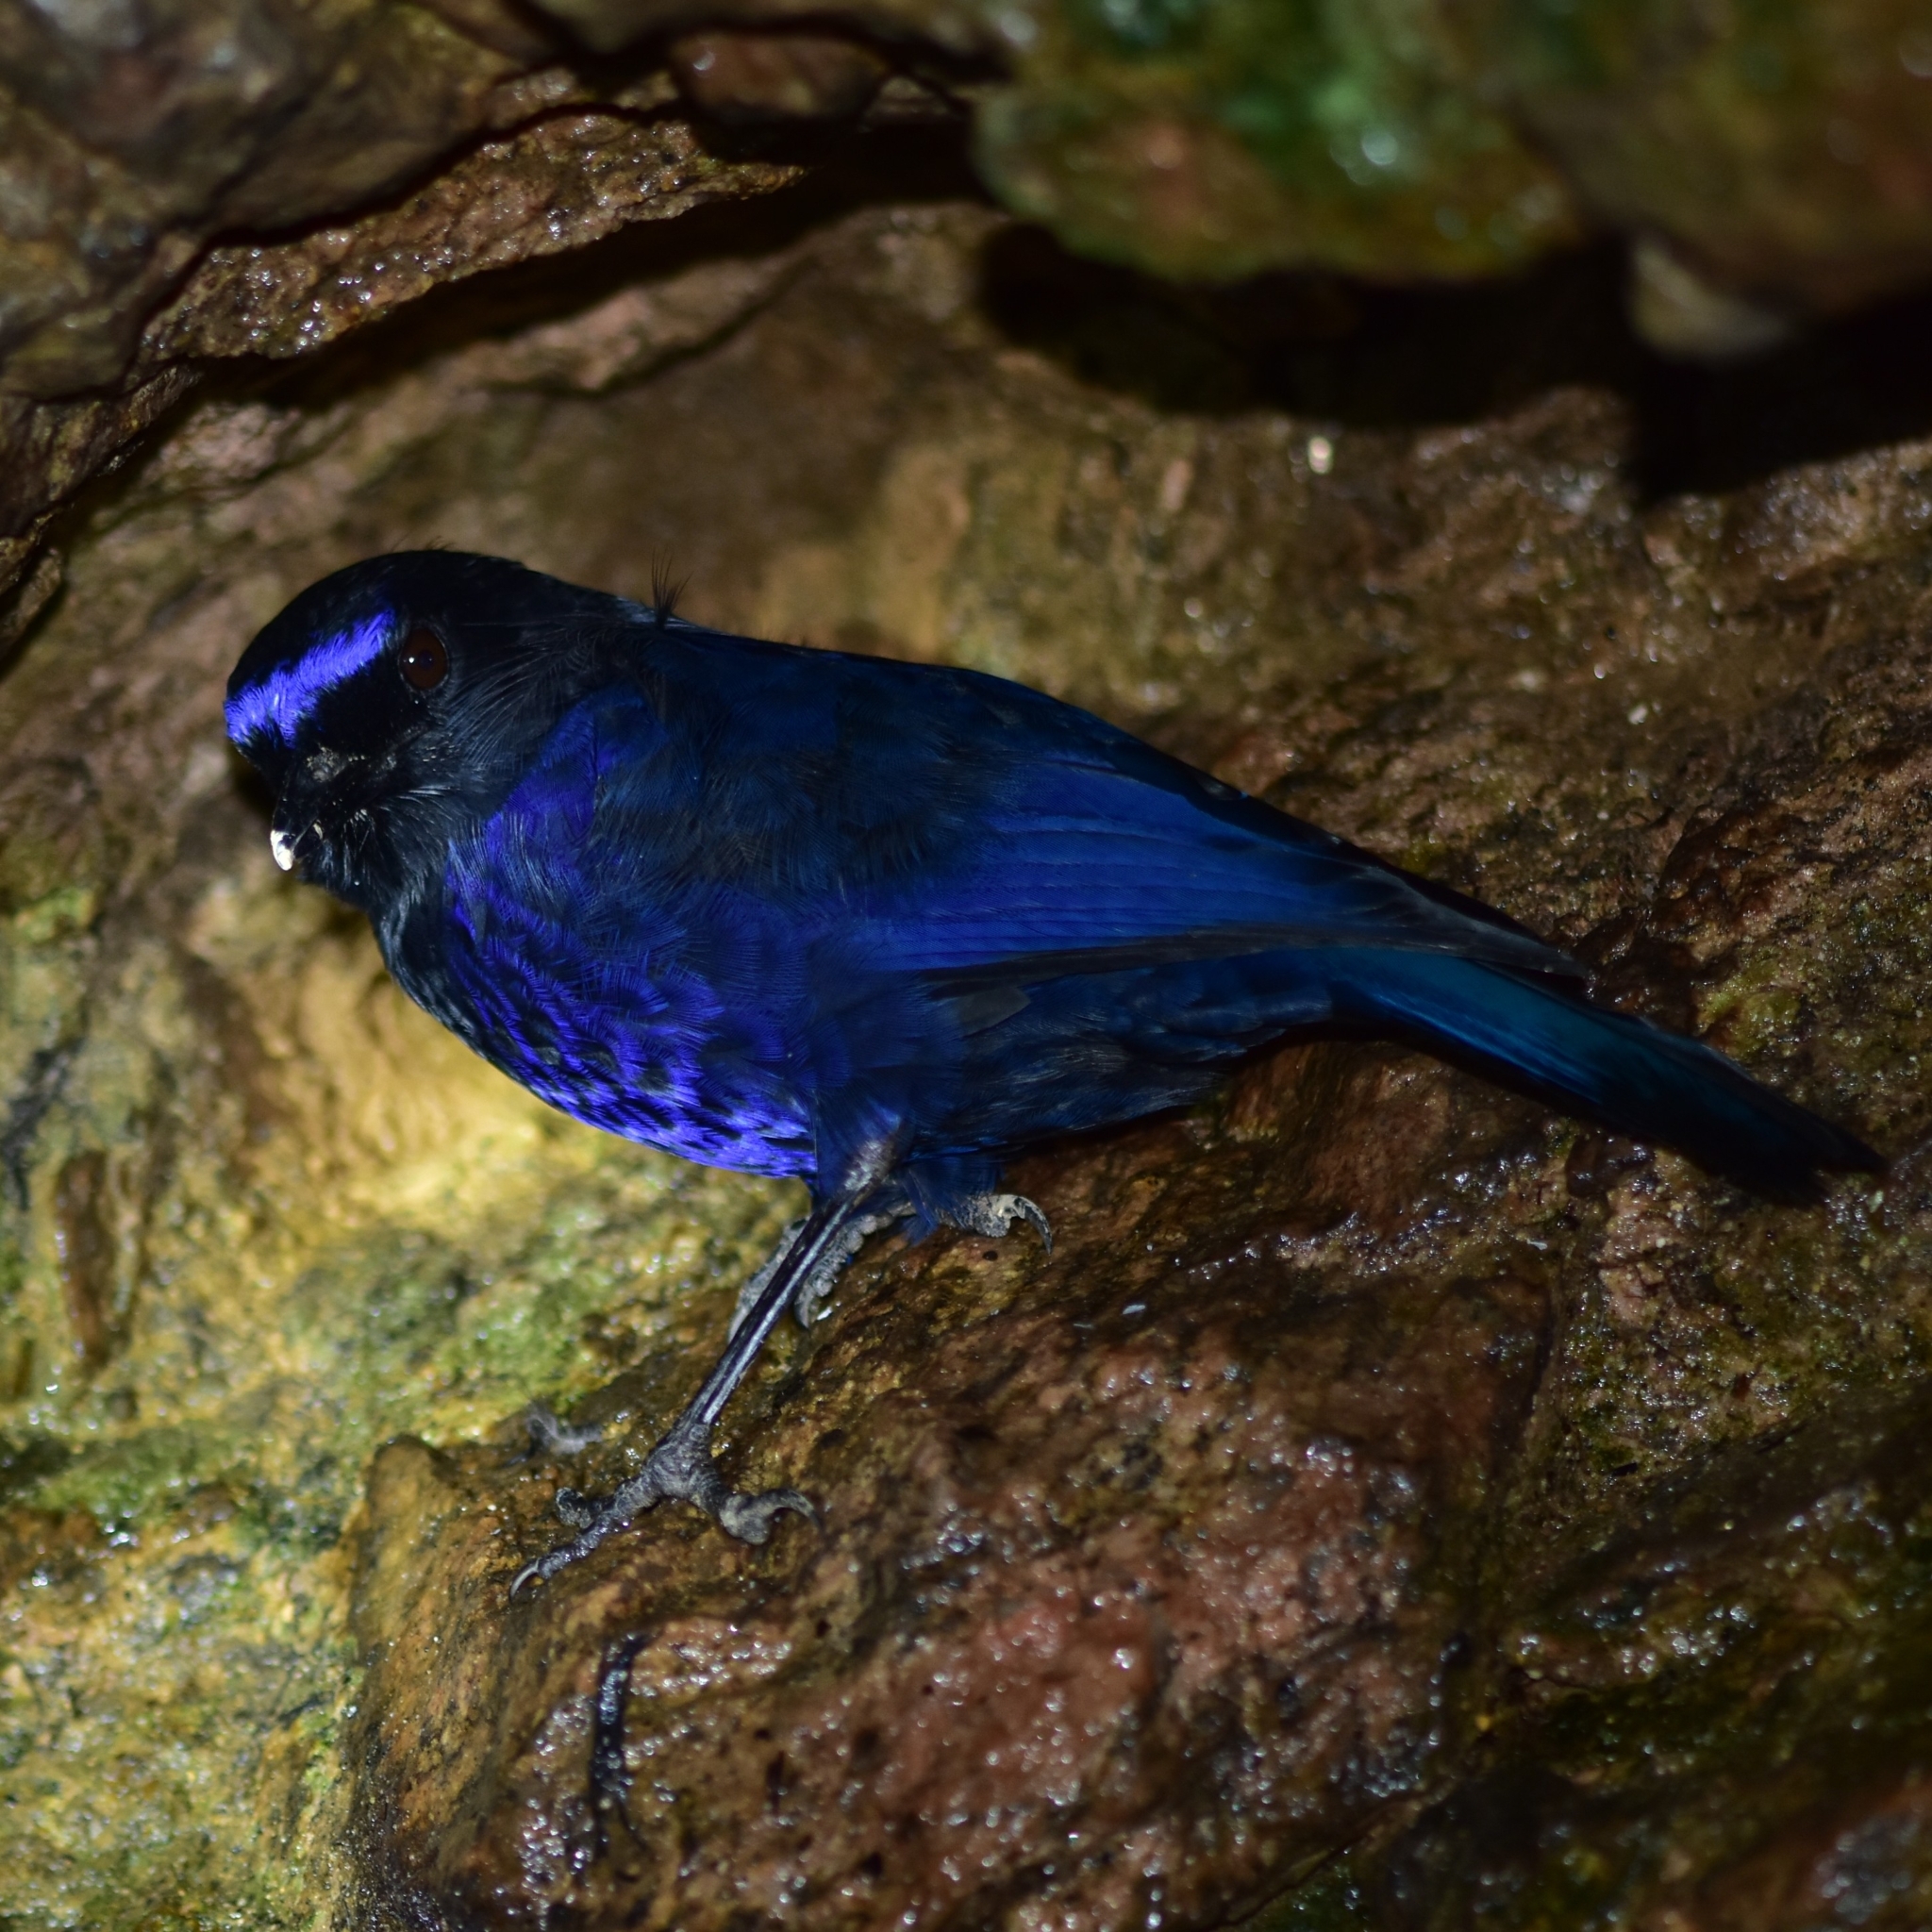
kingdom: Animalia
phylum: Chordata
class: Aves
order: Passeriformes
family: Muscicapidae
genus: Myophonus
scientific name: Myophonus horsfieldii
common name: Malabar whistling-thrush
